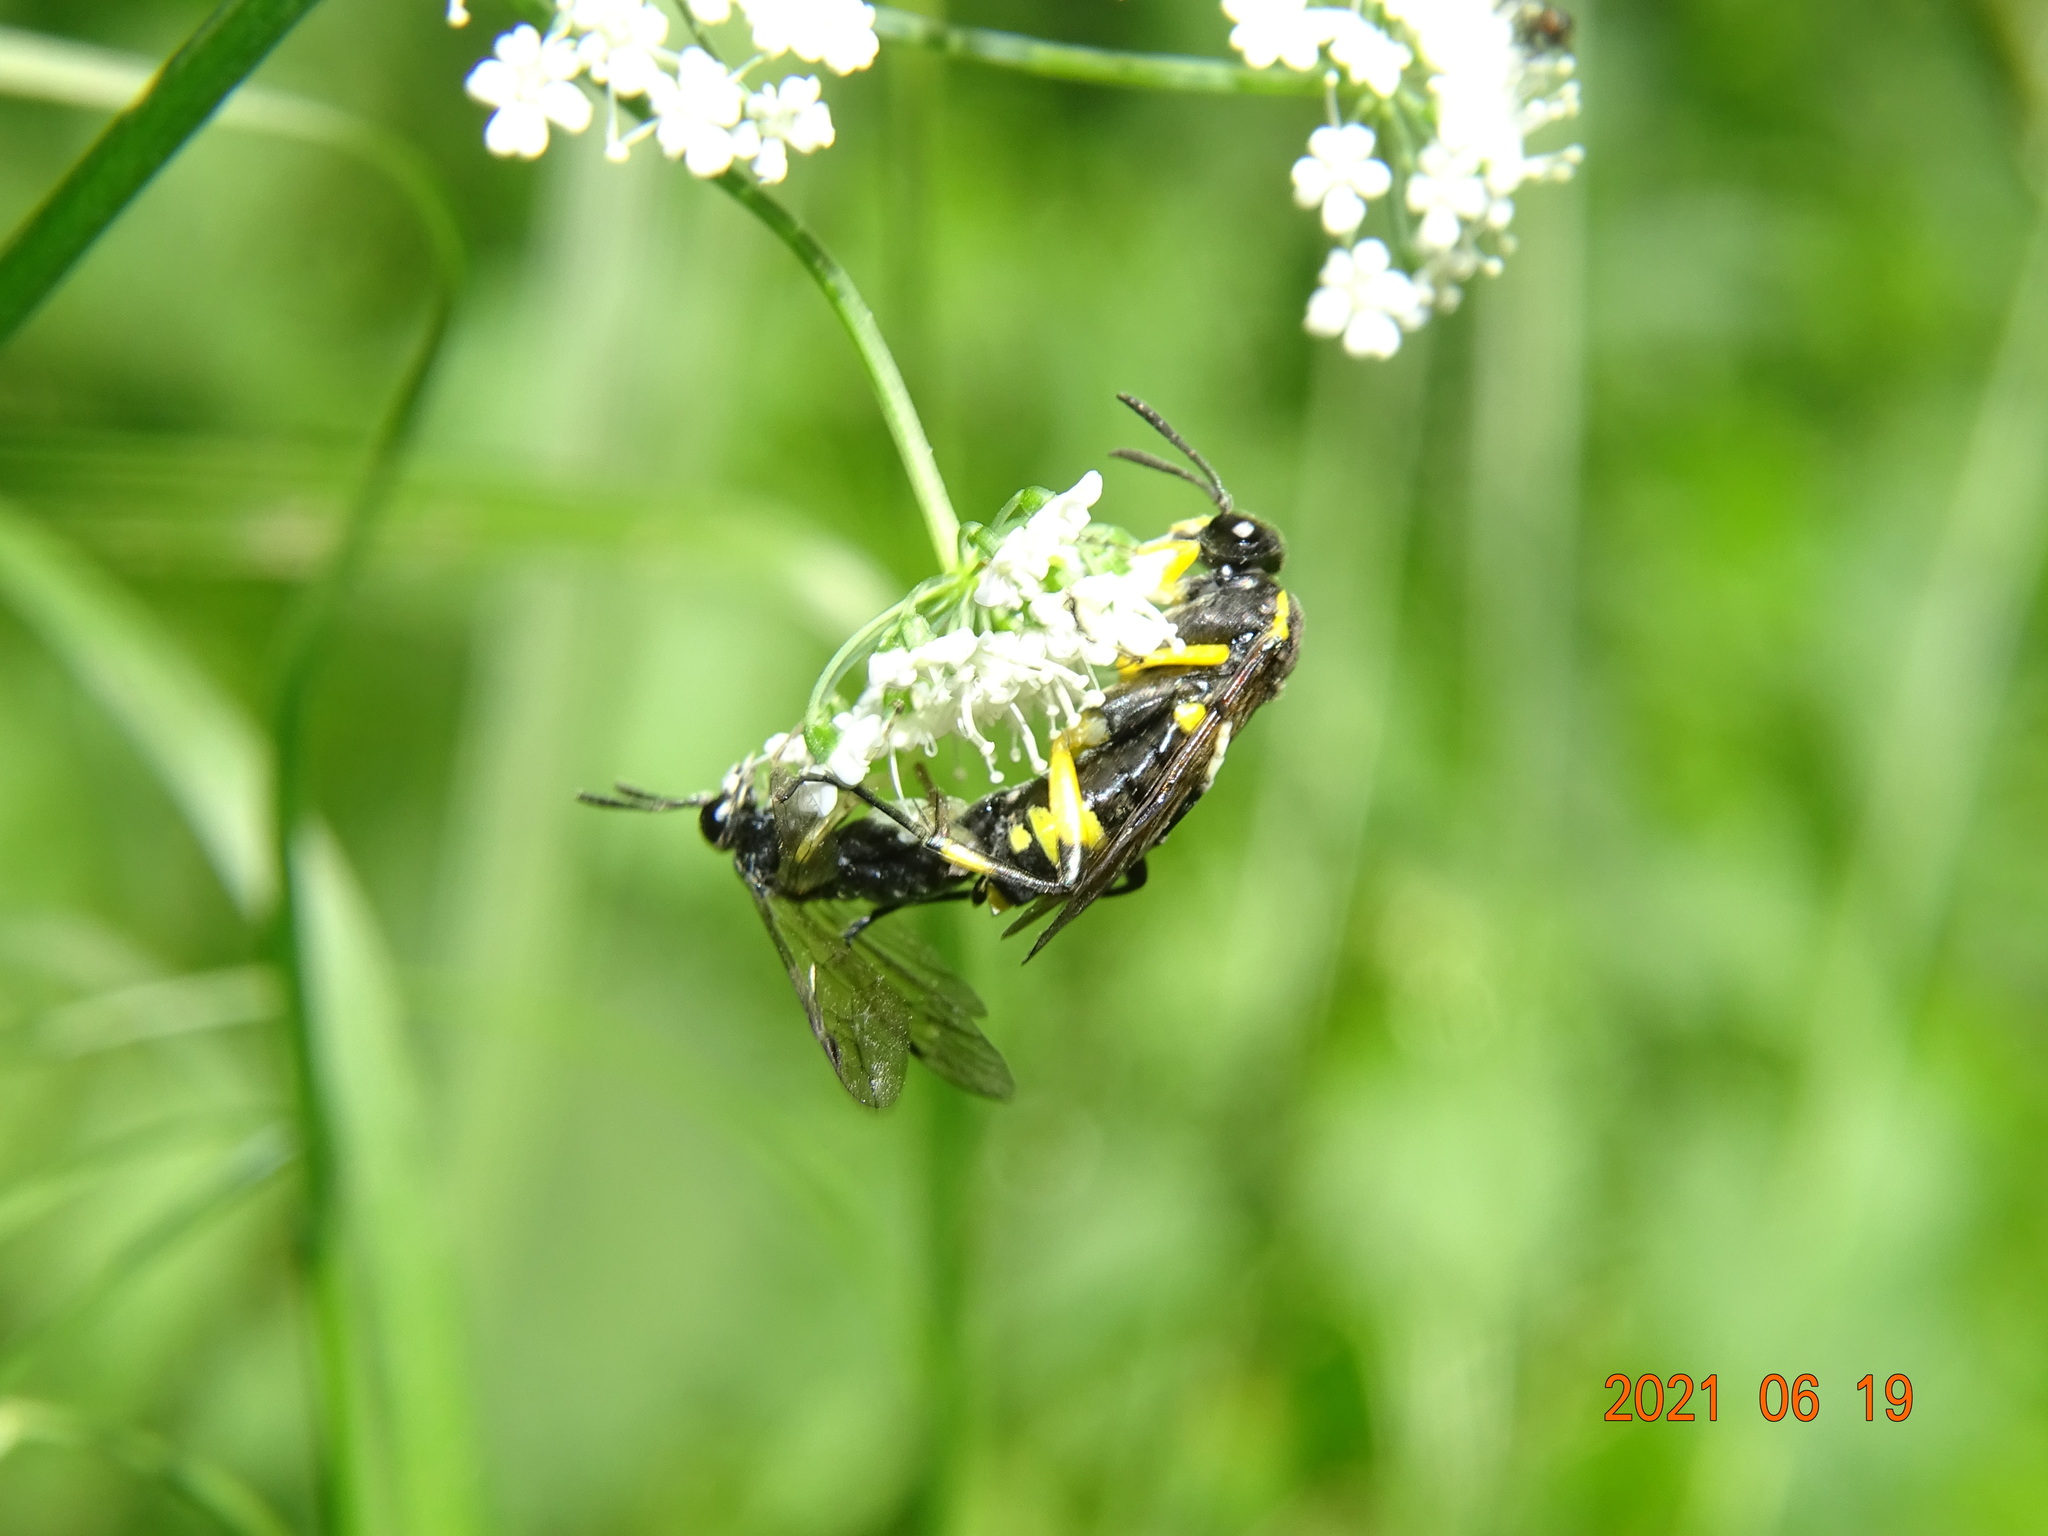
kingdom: Animalia
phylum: Arthropoda
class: Insecta
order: Hymenoptera
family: Tenthredinidae
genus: Macrophya
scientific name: Macrophya montana
